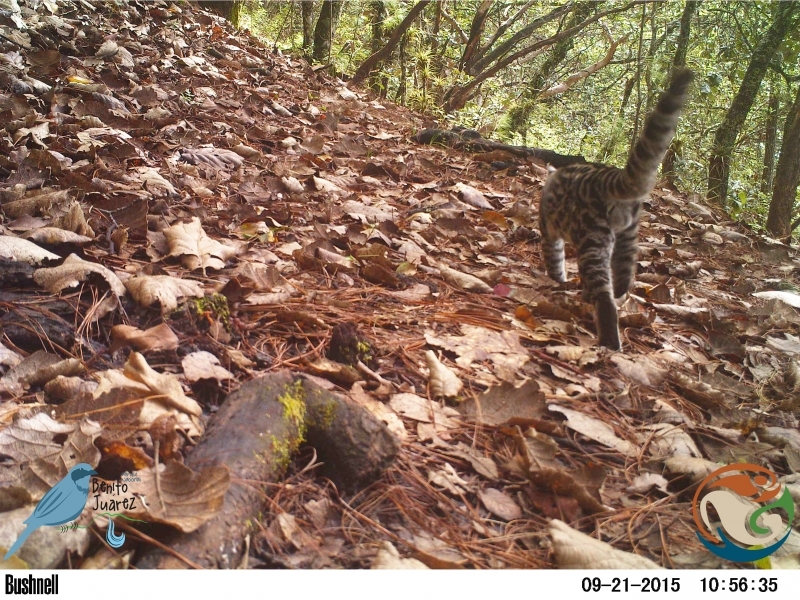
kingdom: Animalia
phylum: Chordata
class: Mammalia
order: Carnivora
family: Felidae
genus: Leopardus
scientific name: Leopardus wiedii
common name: Margay
